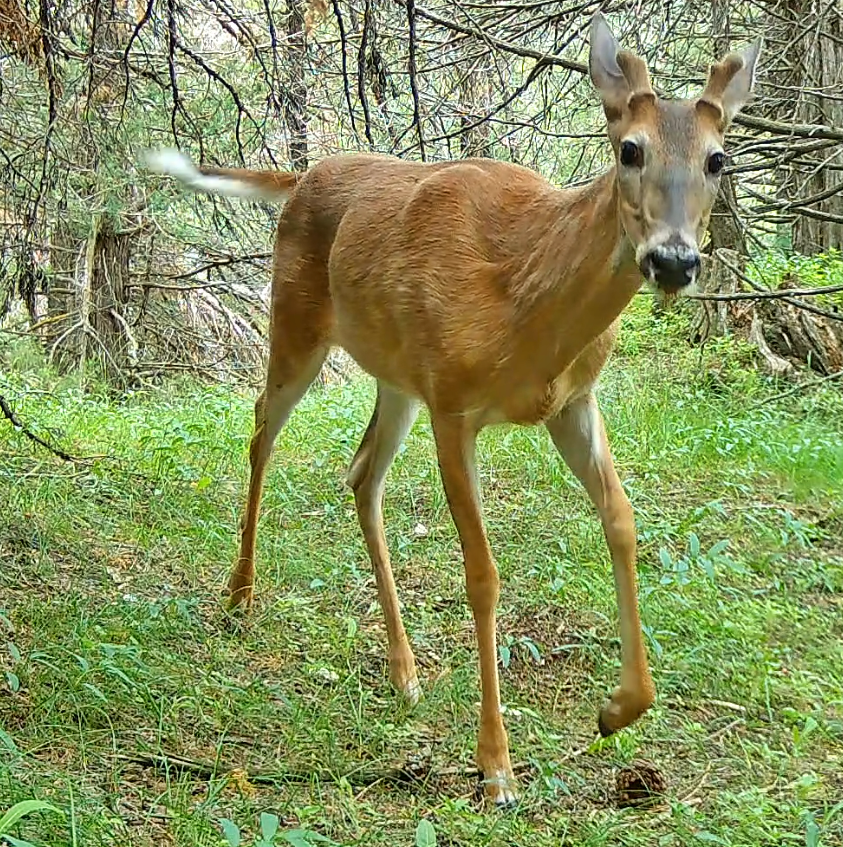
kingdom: Animalia
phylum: Chordata
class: Mammalia
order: Artiodactyla
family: Cervidae
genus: Odocoileus
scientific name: Odocoileus virginianus
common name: White-tailed deer
